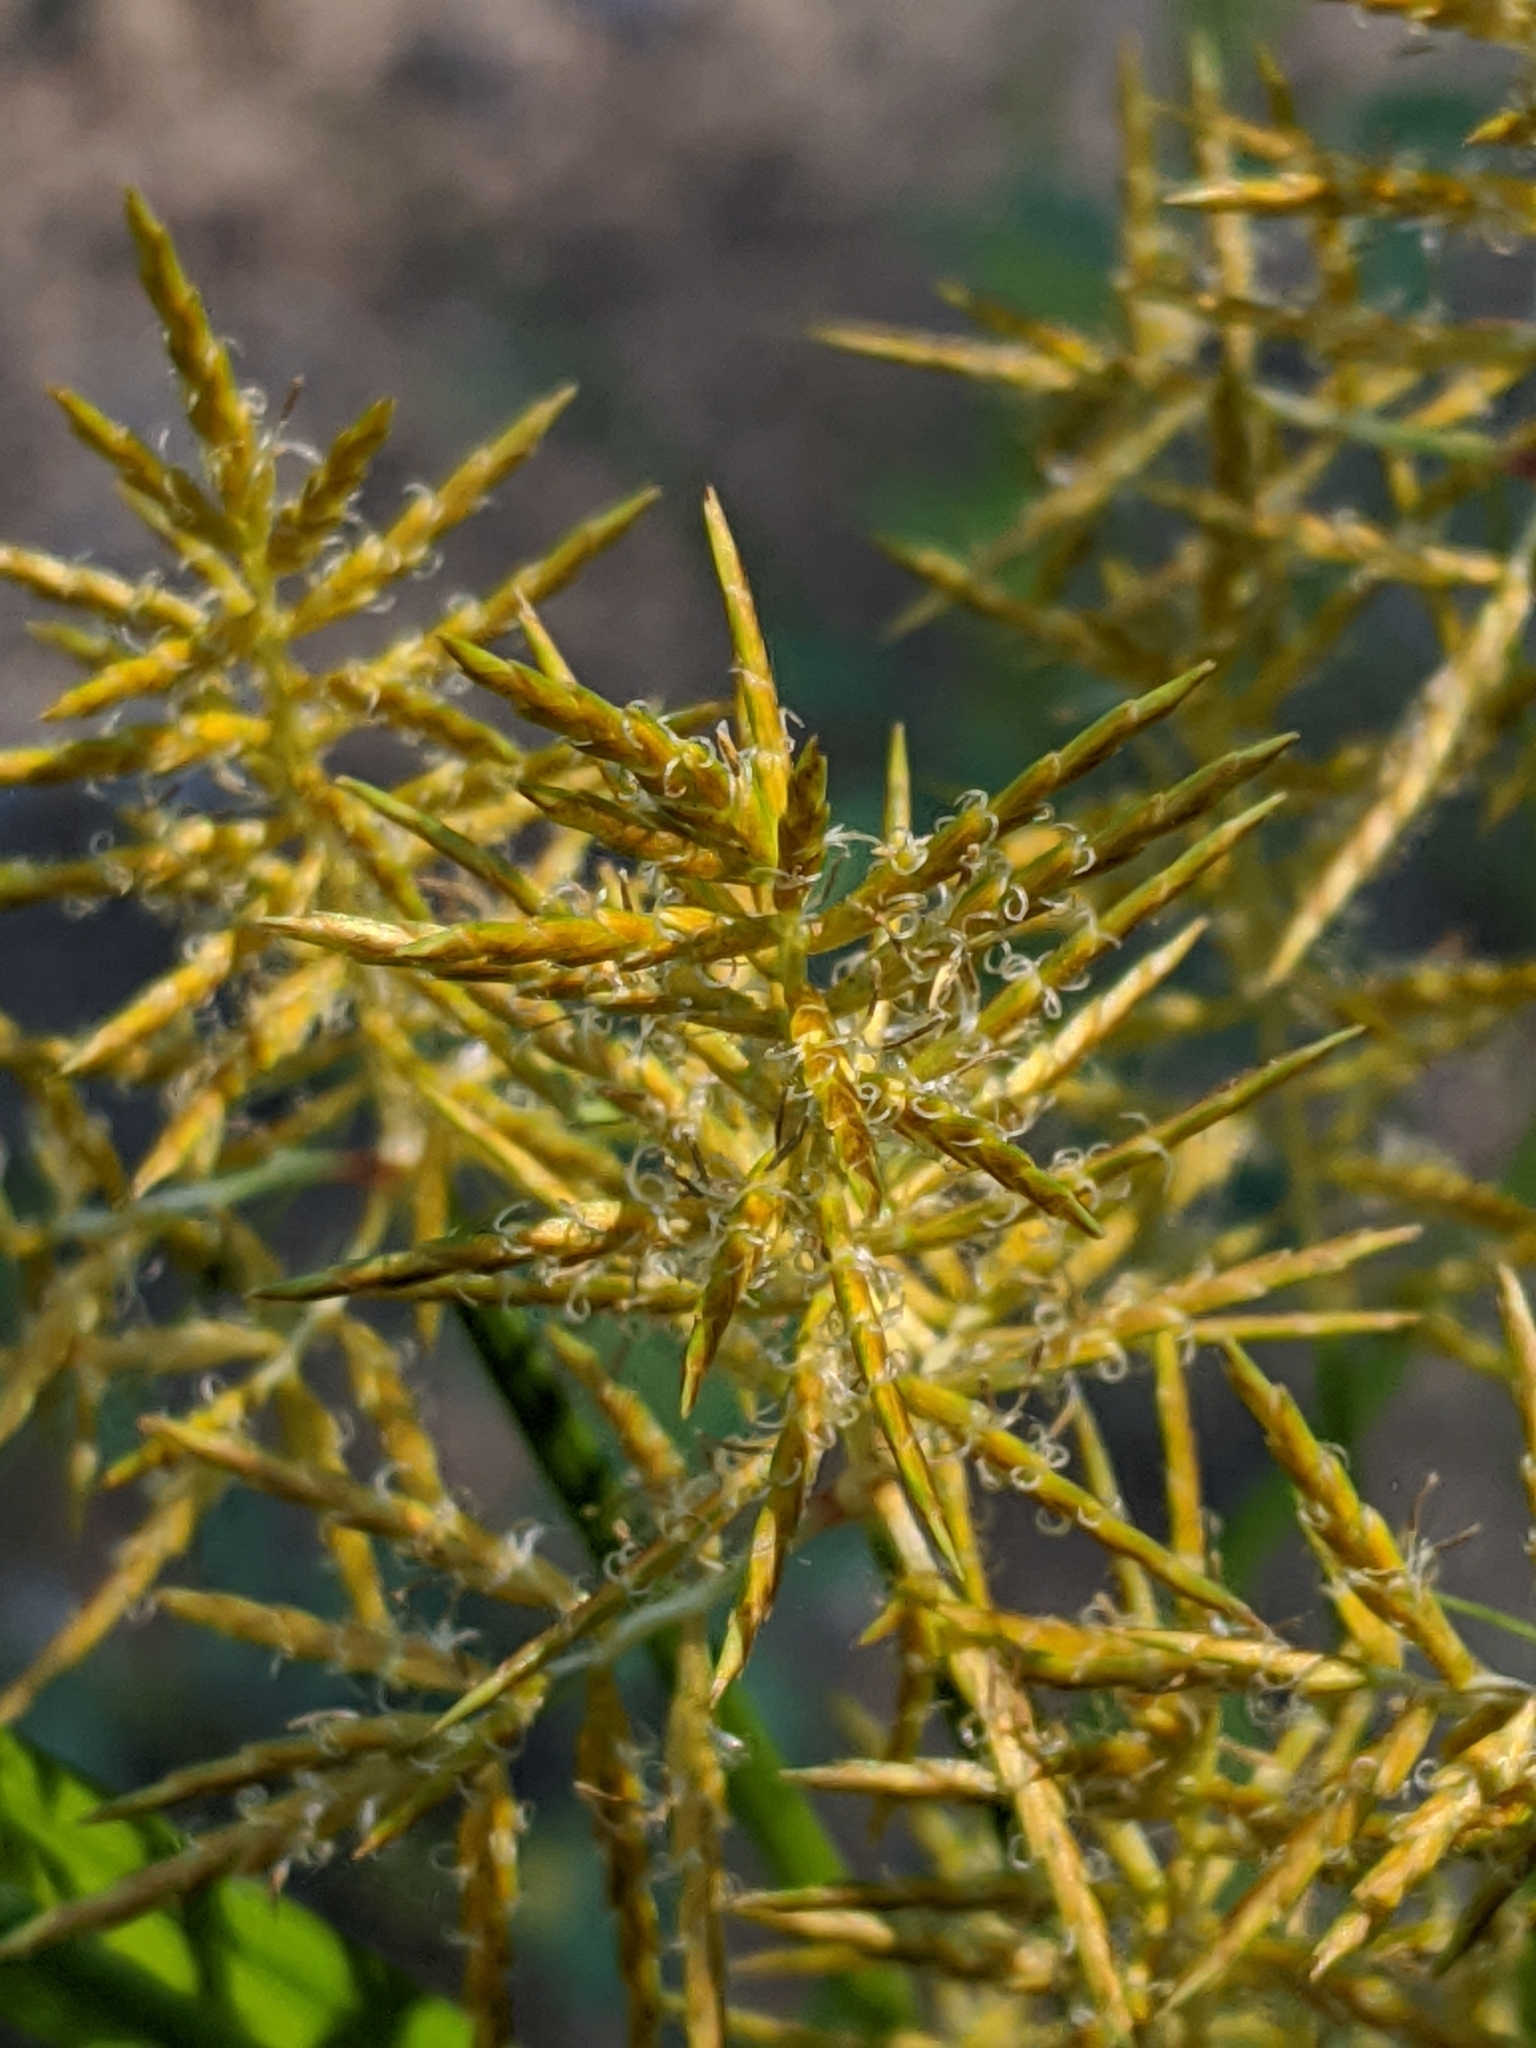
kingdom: Plantae
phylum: Tracheophyta
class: Liliopsida
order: Poales
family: Cyperaceae
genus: Cyperus
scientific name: Cyperus esculentus
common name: Yellow nutsedge
